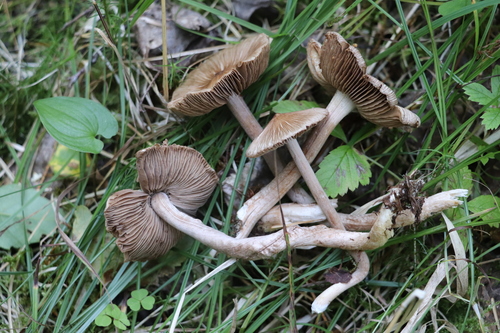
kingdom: Fungi
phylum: Basidiomycota
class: Agaricomycetes
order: Agaricales
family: Inocybaceae
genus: Inocybe
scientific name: Inocybe acuta
